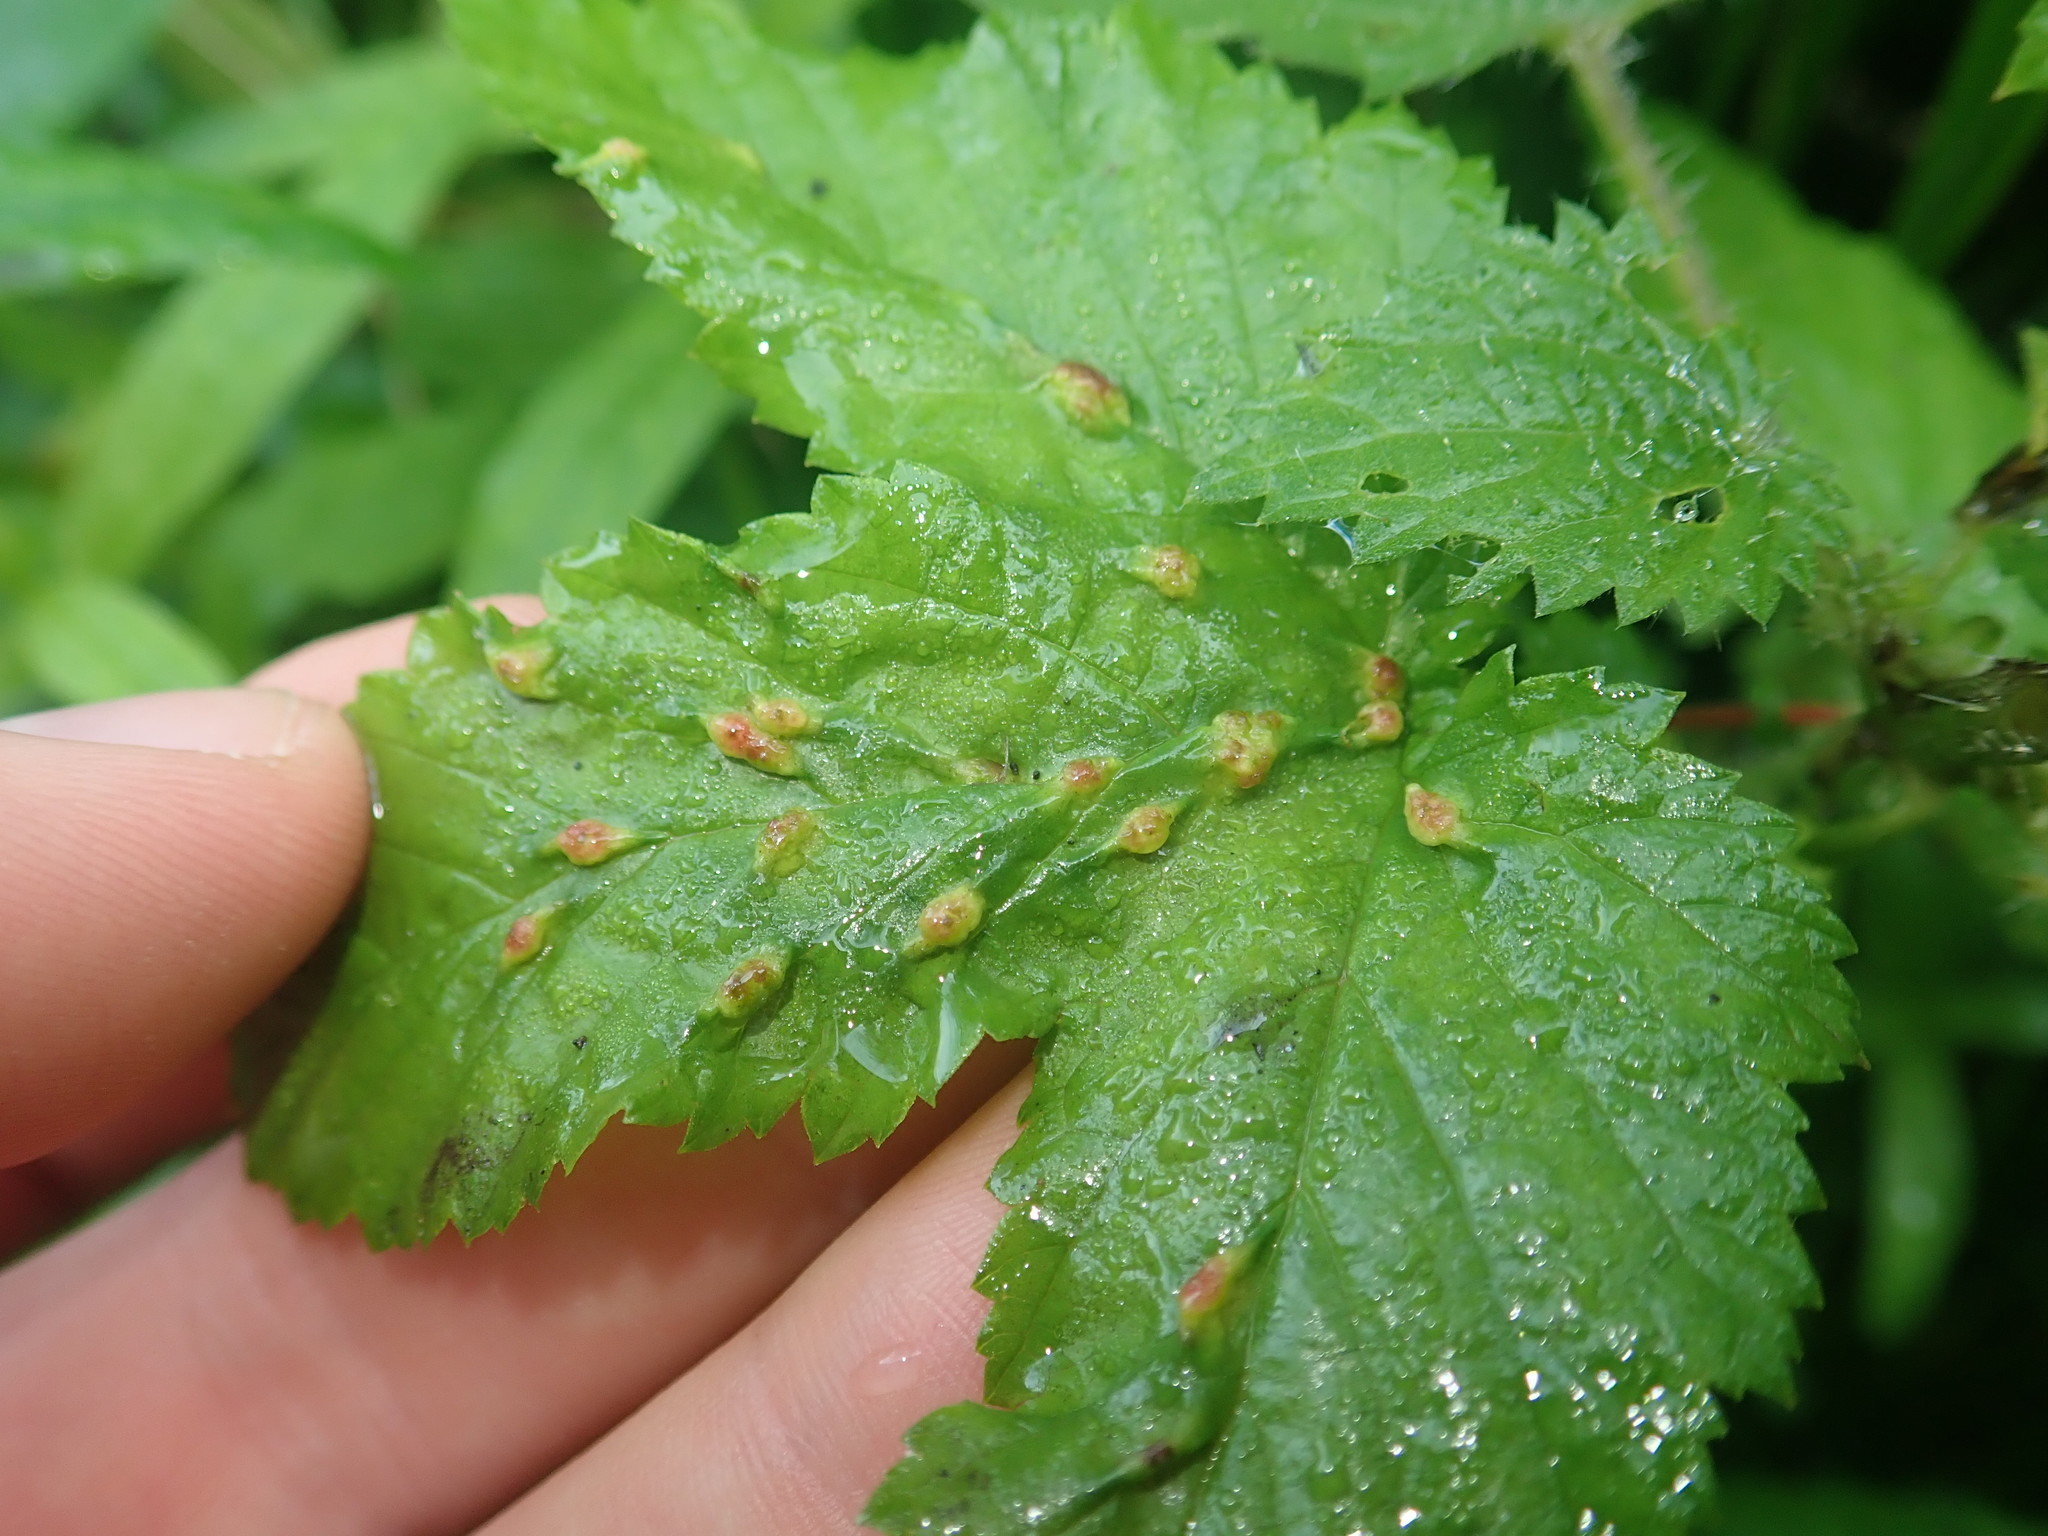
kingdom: Animalia
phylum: Arthropoda
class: Insecta
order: Diptera
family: Cecidomyiidae
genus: Dasineura
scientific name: Dasineura ulmaria
